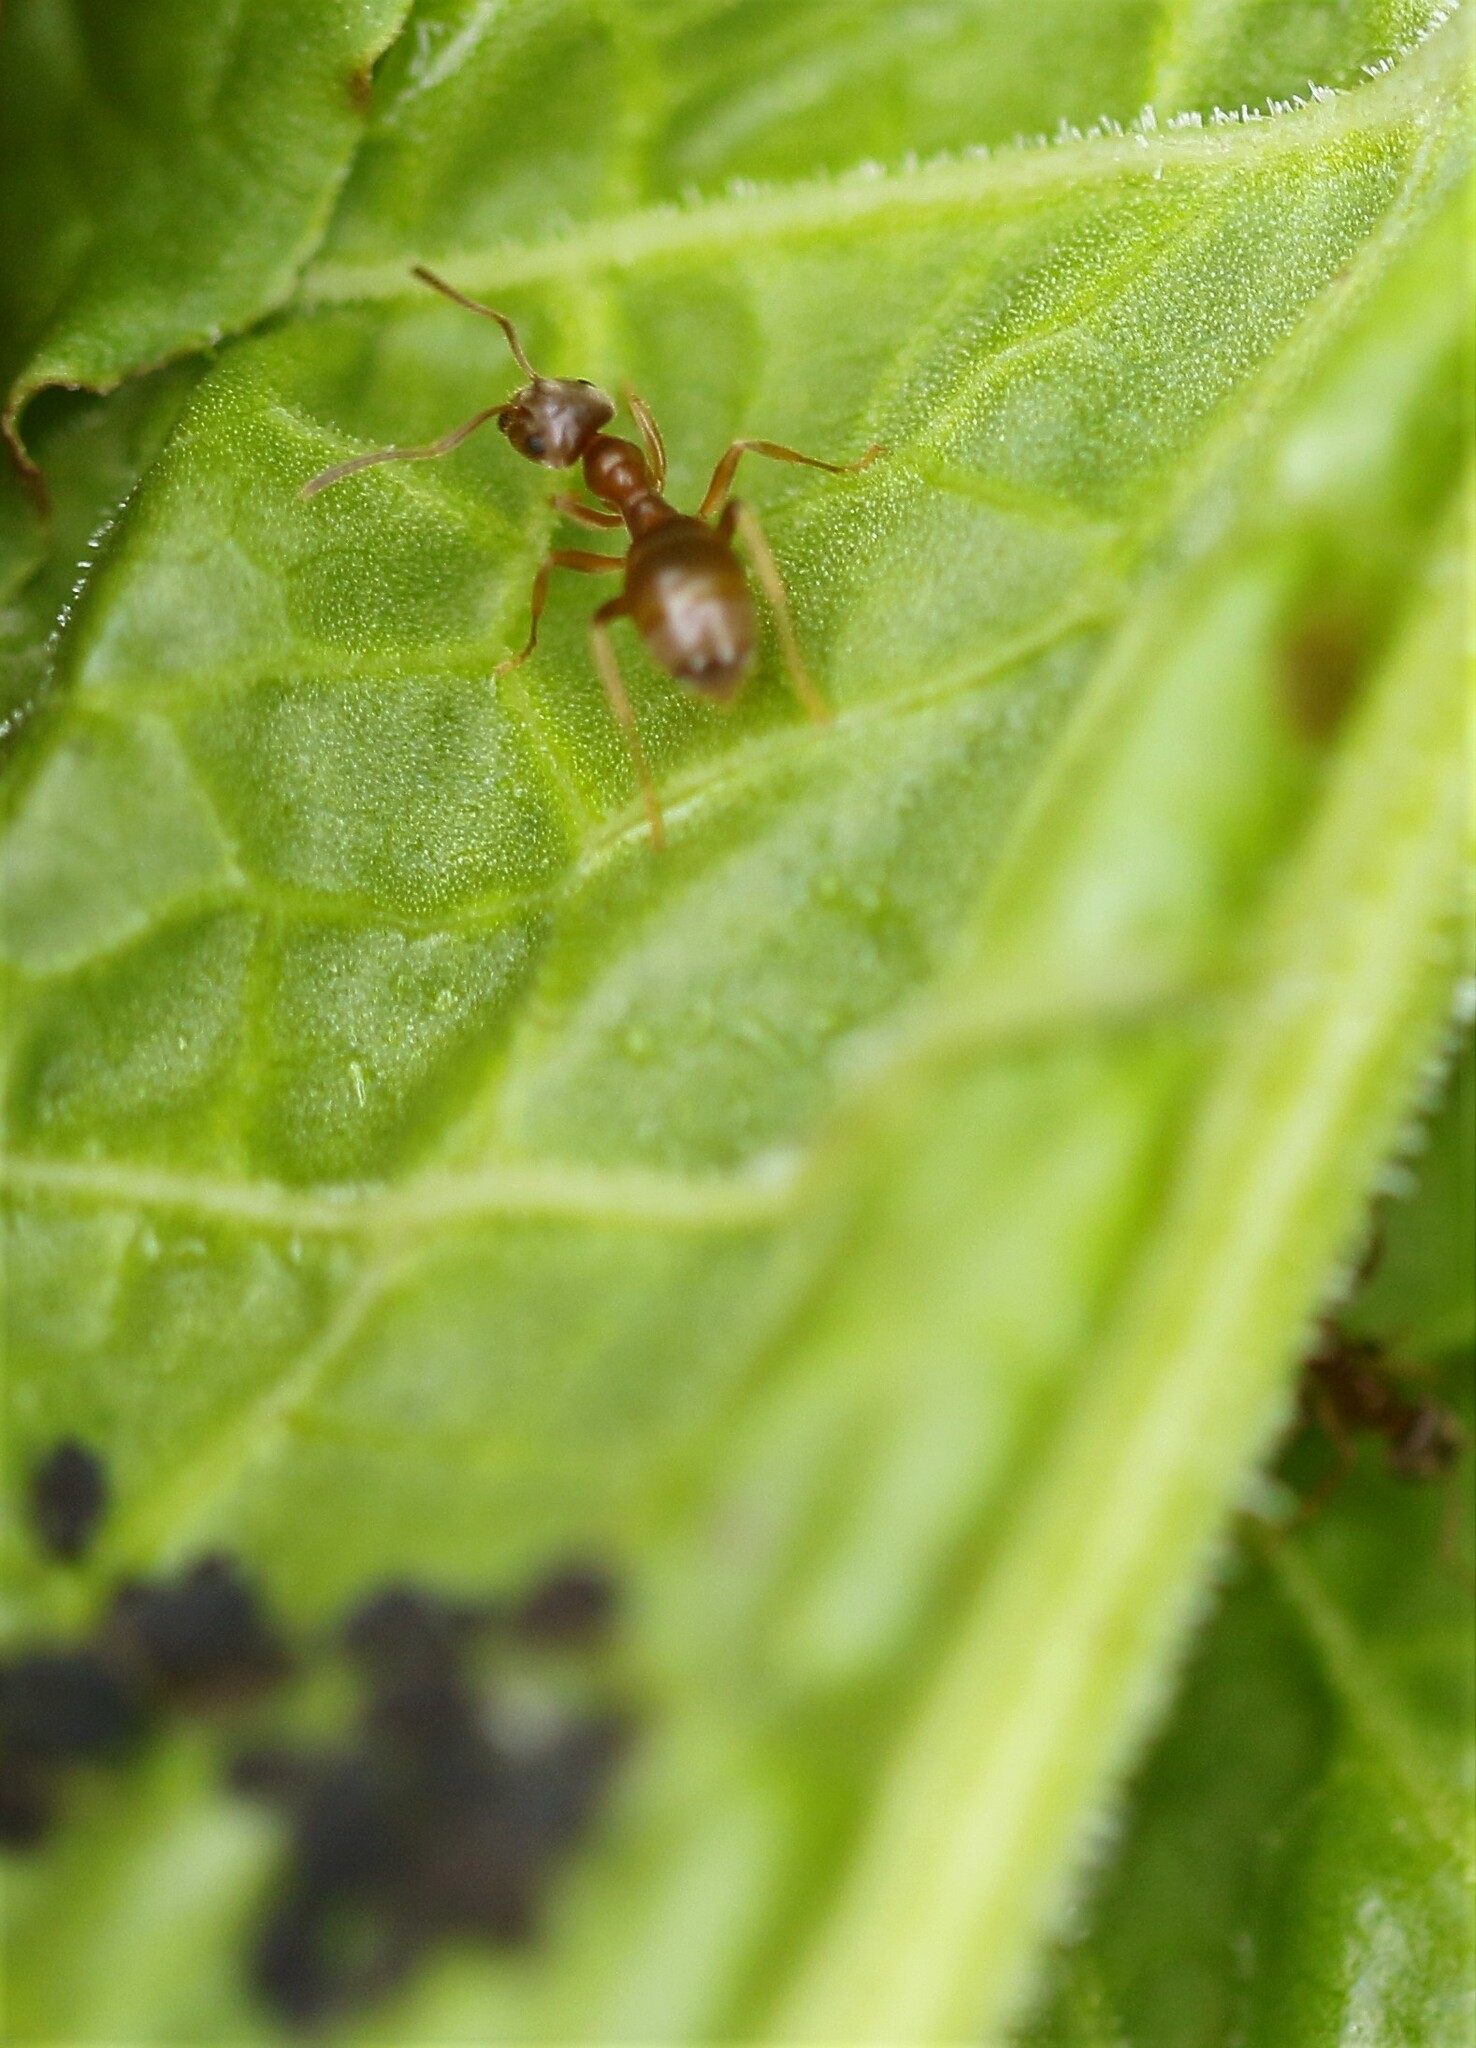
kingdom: Animalia
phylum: Arthropoda
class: Insecta
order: Hymenoptera
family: Formicidae
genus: Lasius
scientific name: Lasius neoniger
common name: Turfgrass ant
